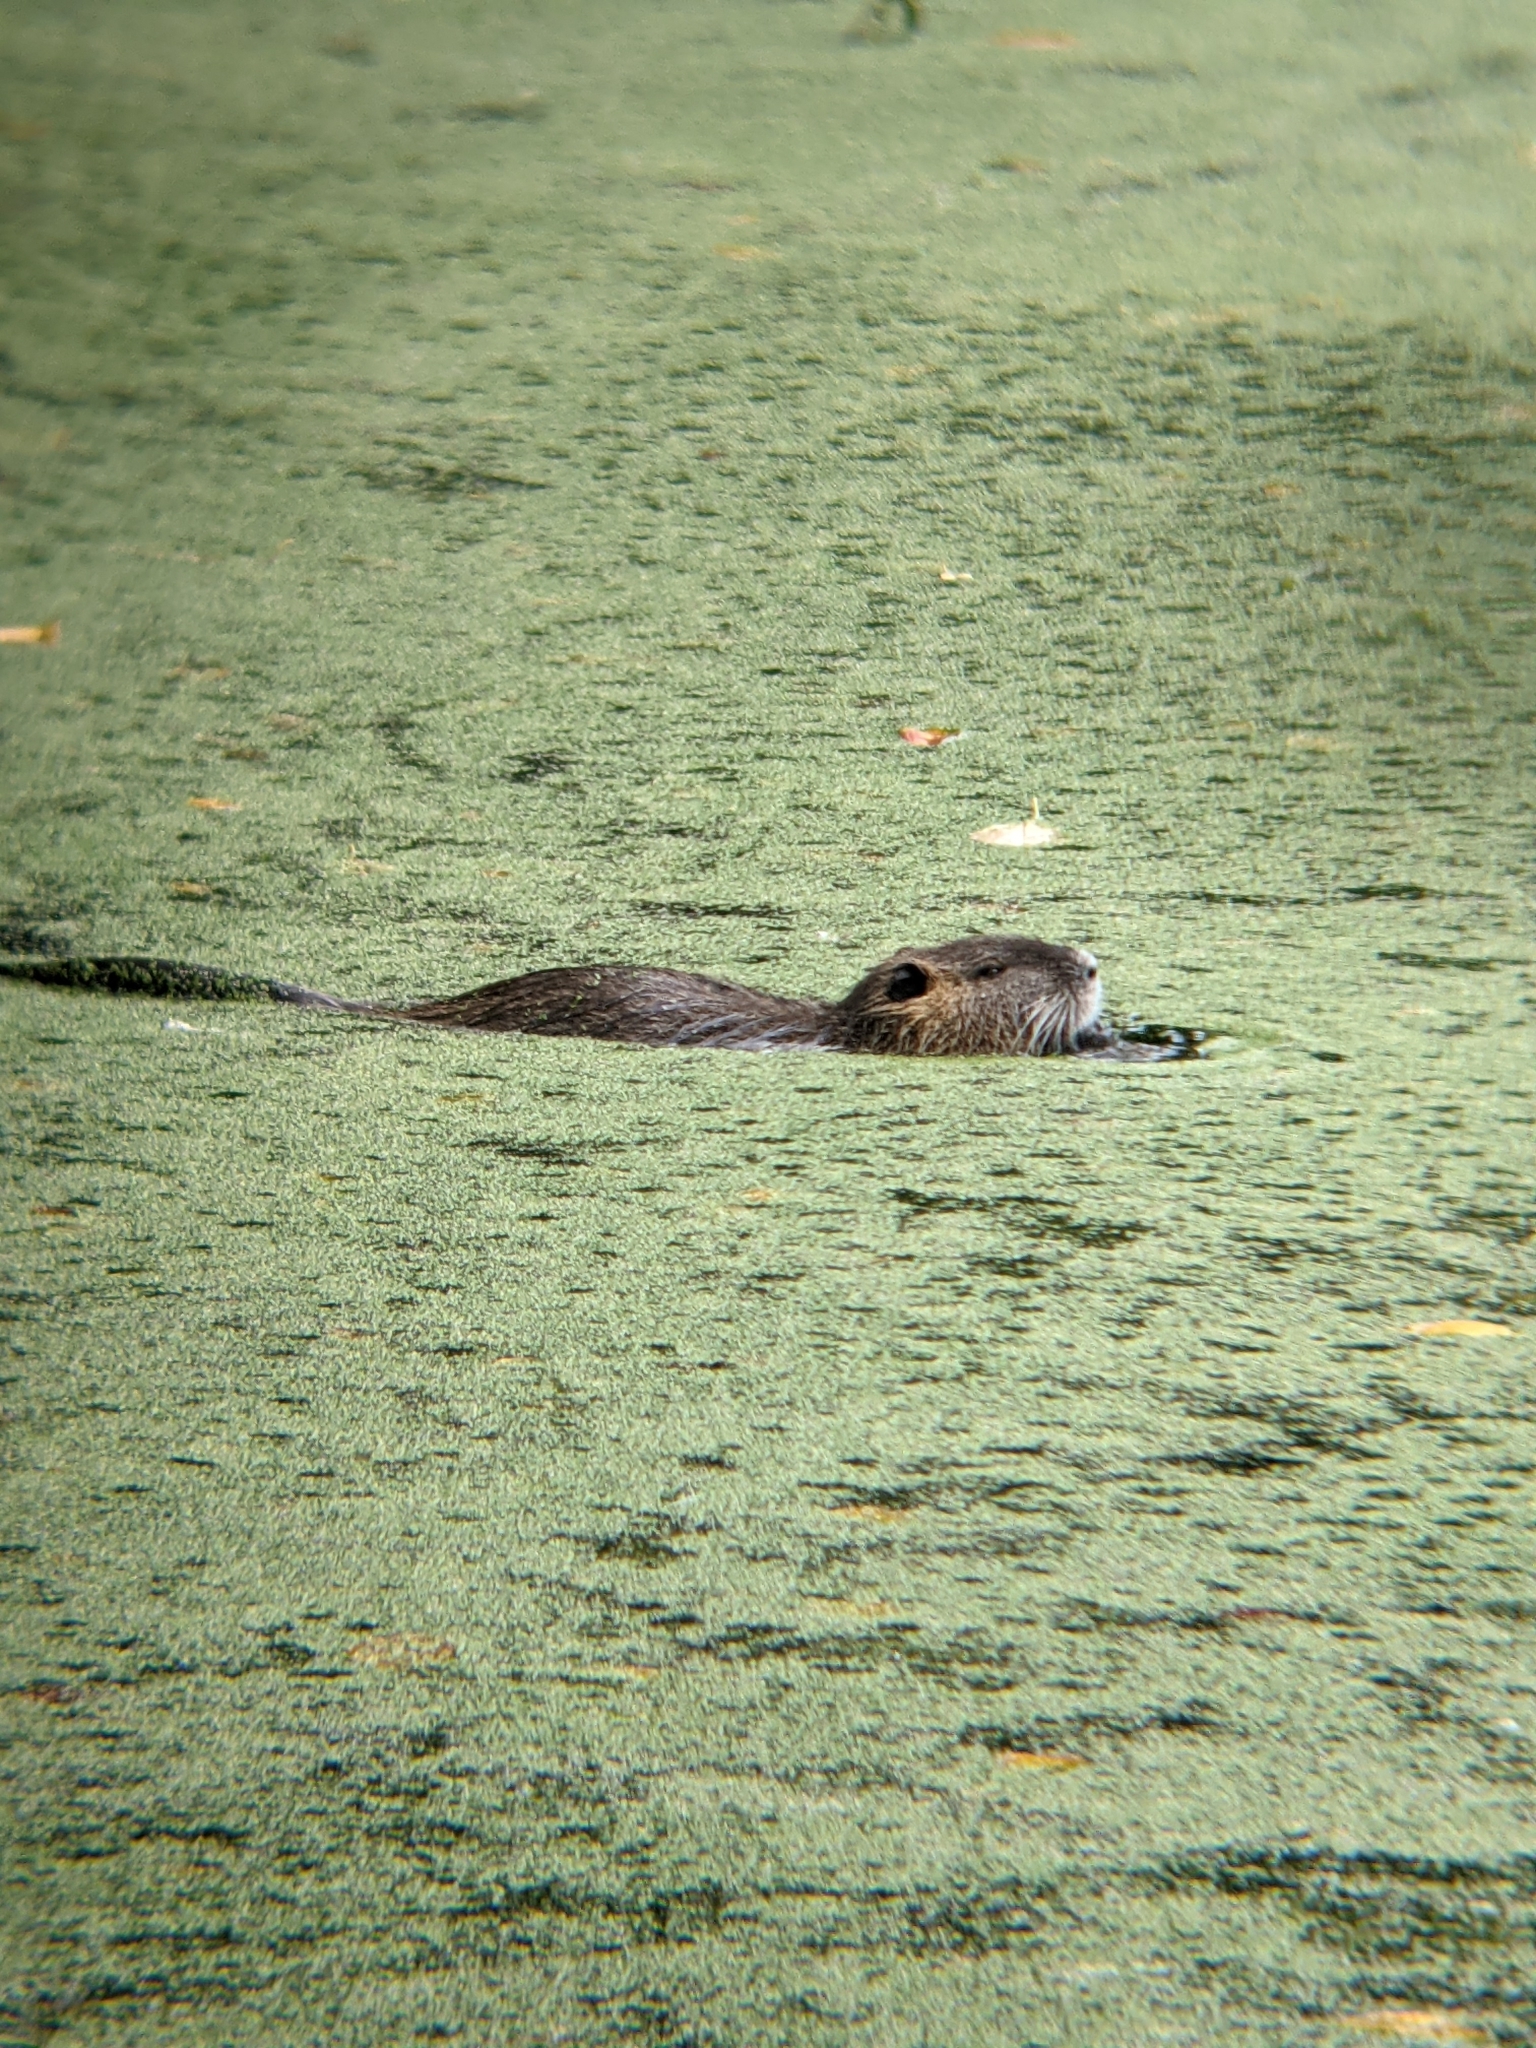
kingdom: Animalia
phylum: Chordata
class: Mammalia
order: Rodentia
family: Myocastoridae
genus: Myocastor
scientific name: Myocastor coypus
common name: Coypu
